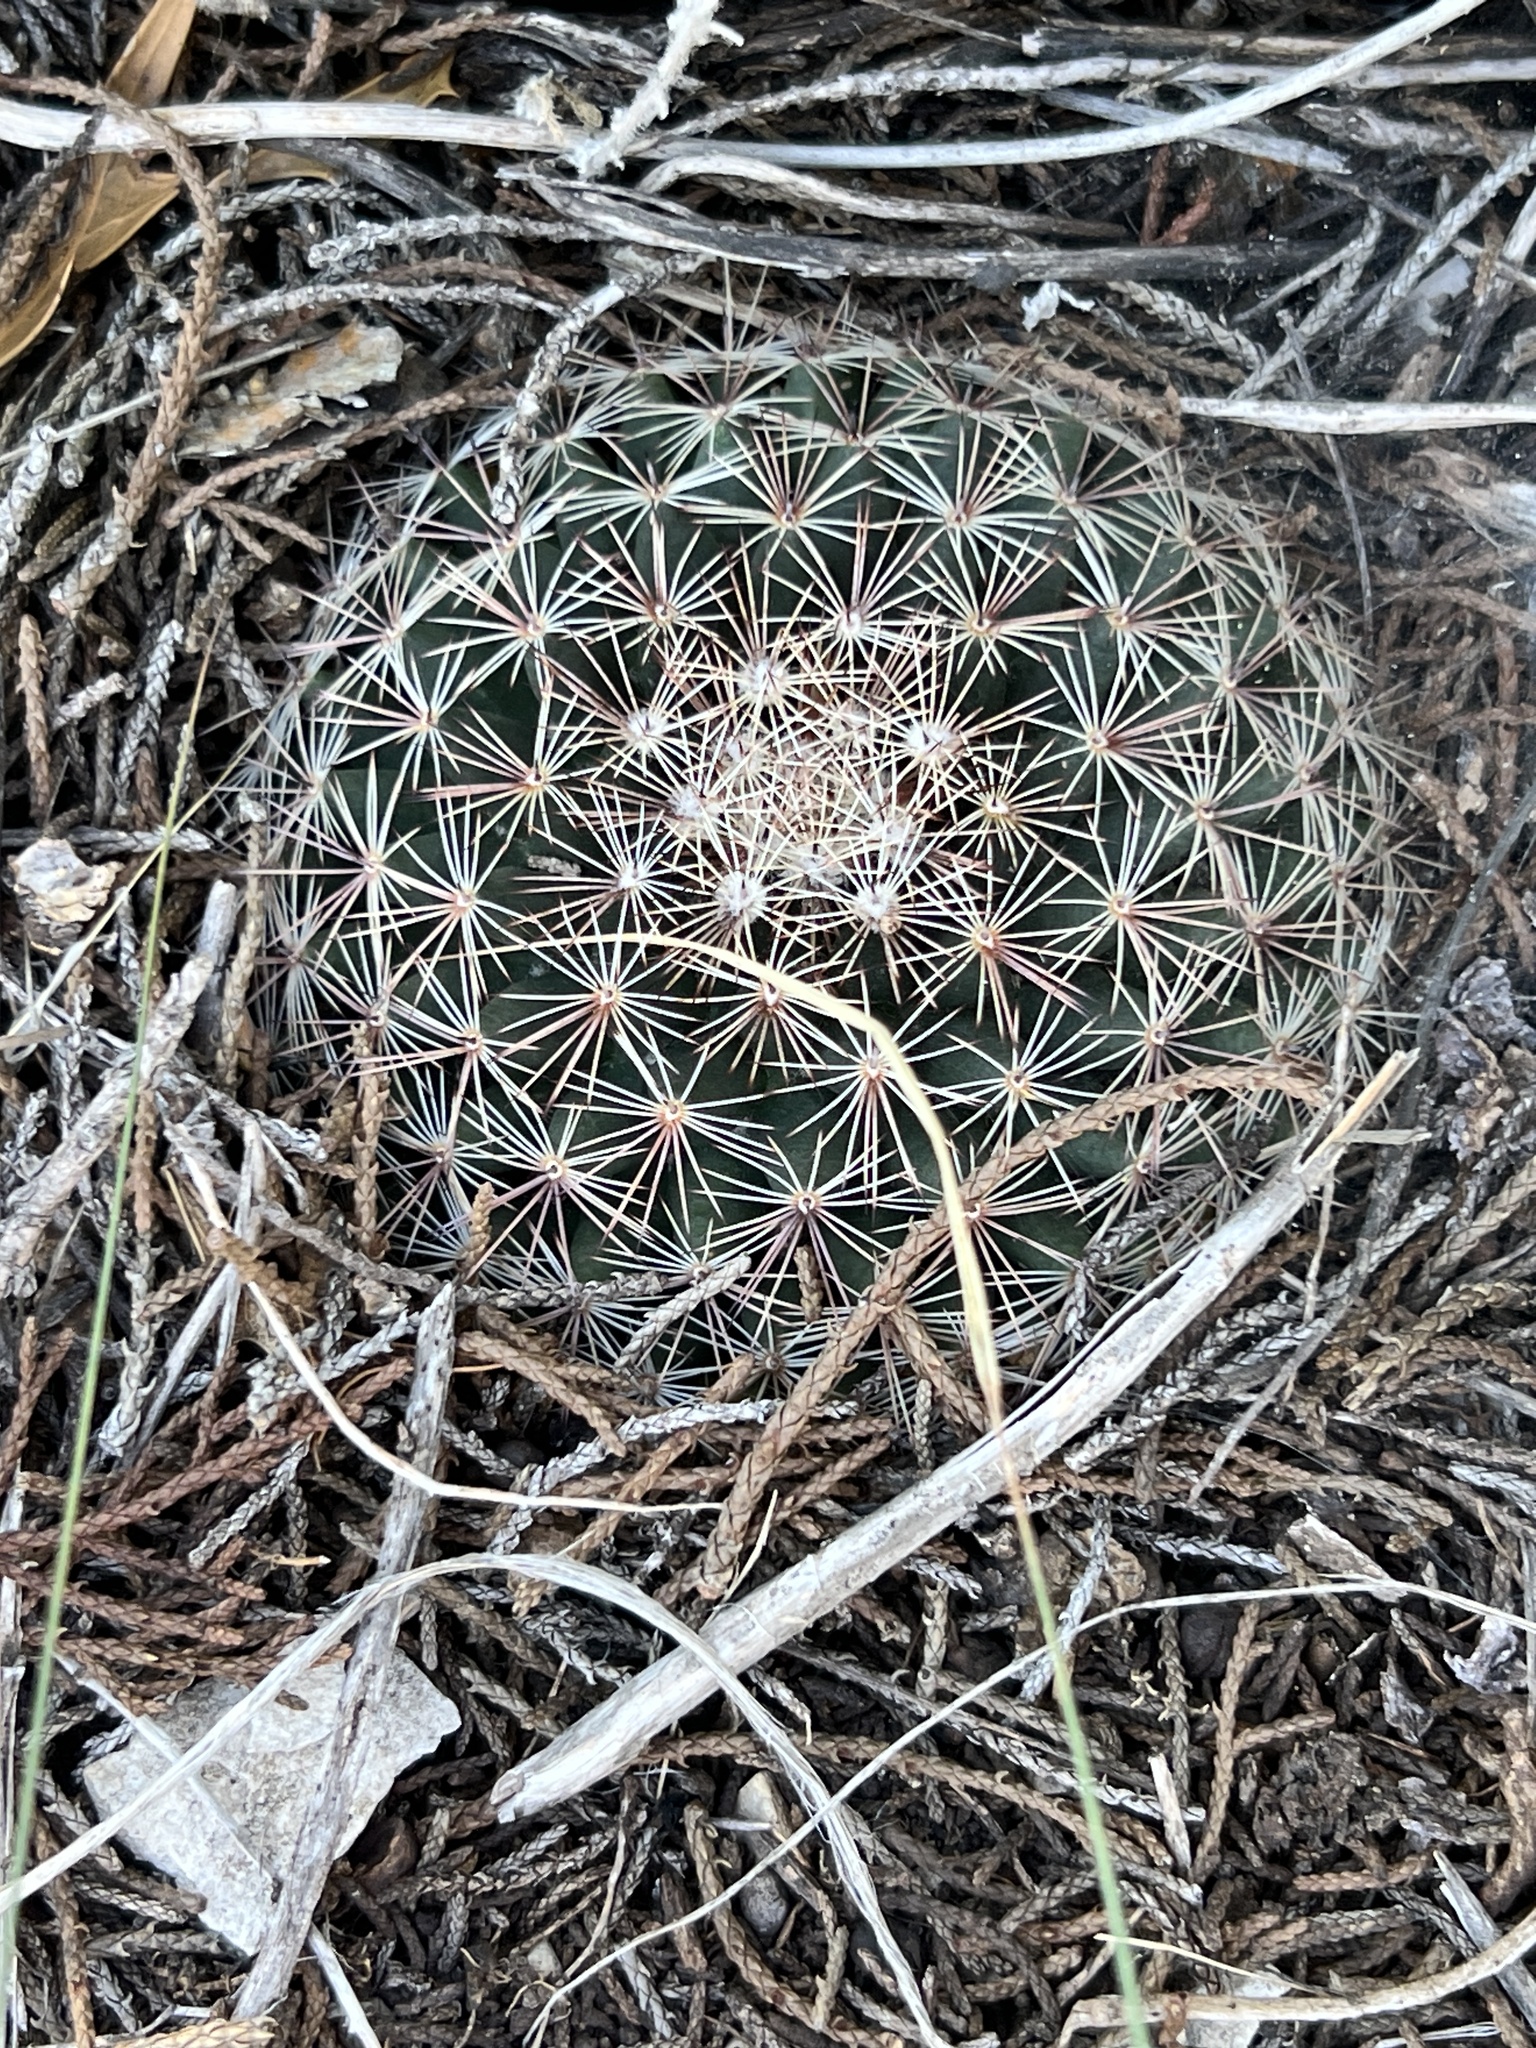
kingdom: Plantae
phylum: Tracheophyta
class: Magnoliopsida
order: Caryophyllales
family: Cactaceae
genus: Mammillaria
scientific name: Mammillaria heyderi
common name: Little nipple cactus
